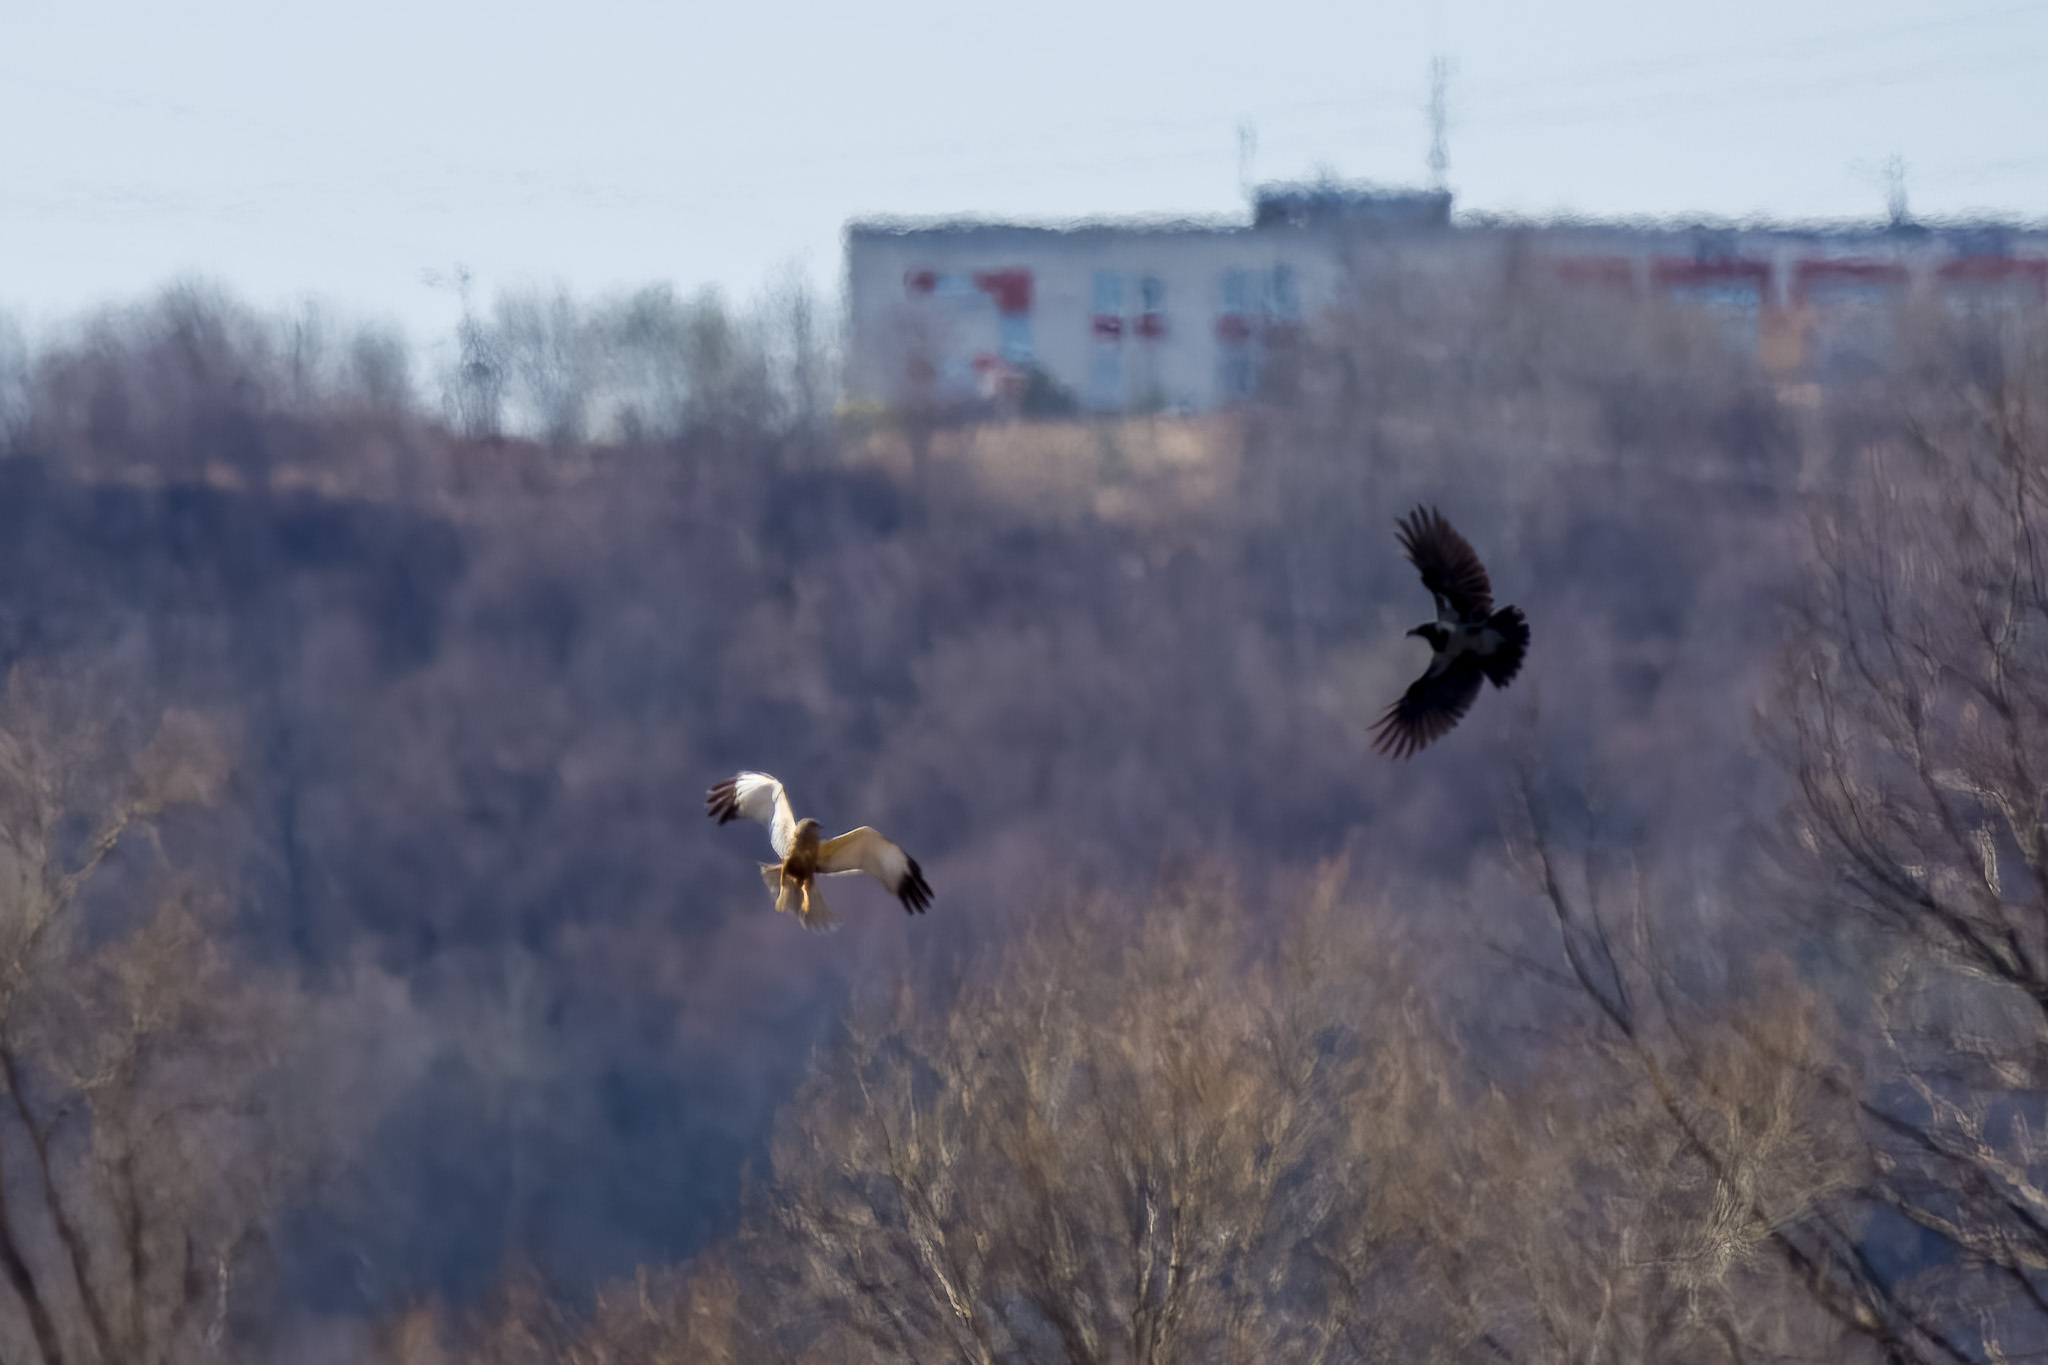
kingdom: Animalia
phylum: Chordata
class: Aves
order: Accipitriformes
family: Accipitridae
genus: Circus
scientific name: Circus aeruginosus
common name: Western marsh harrier
